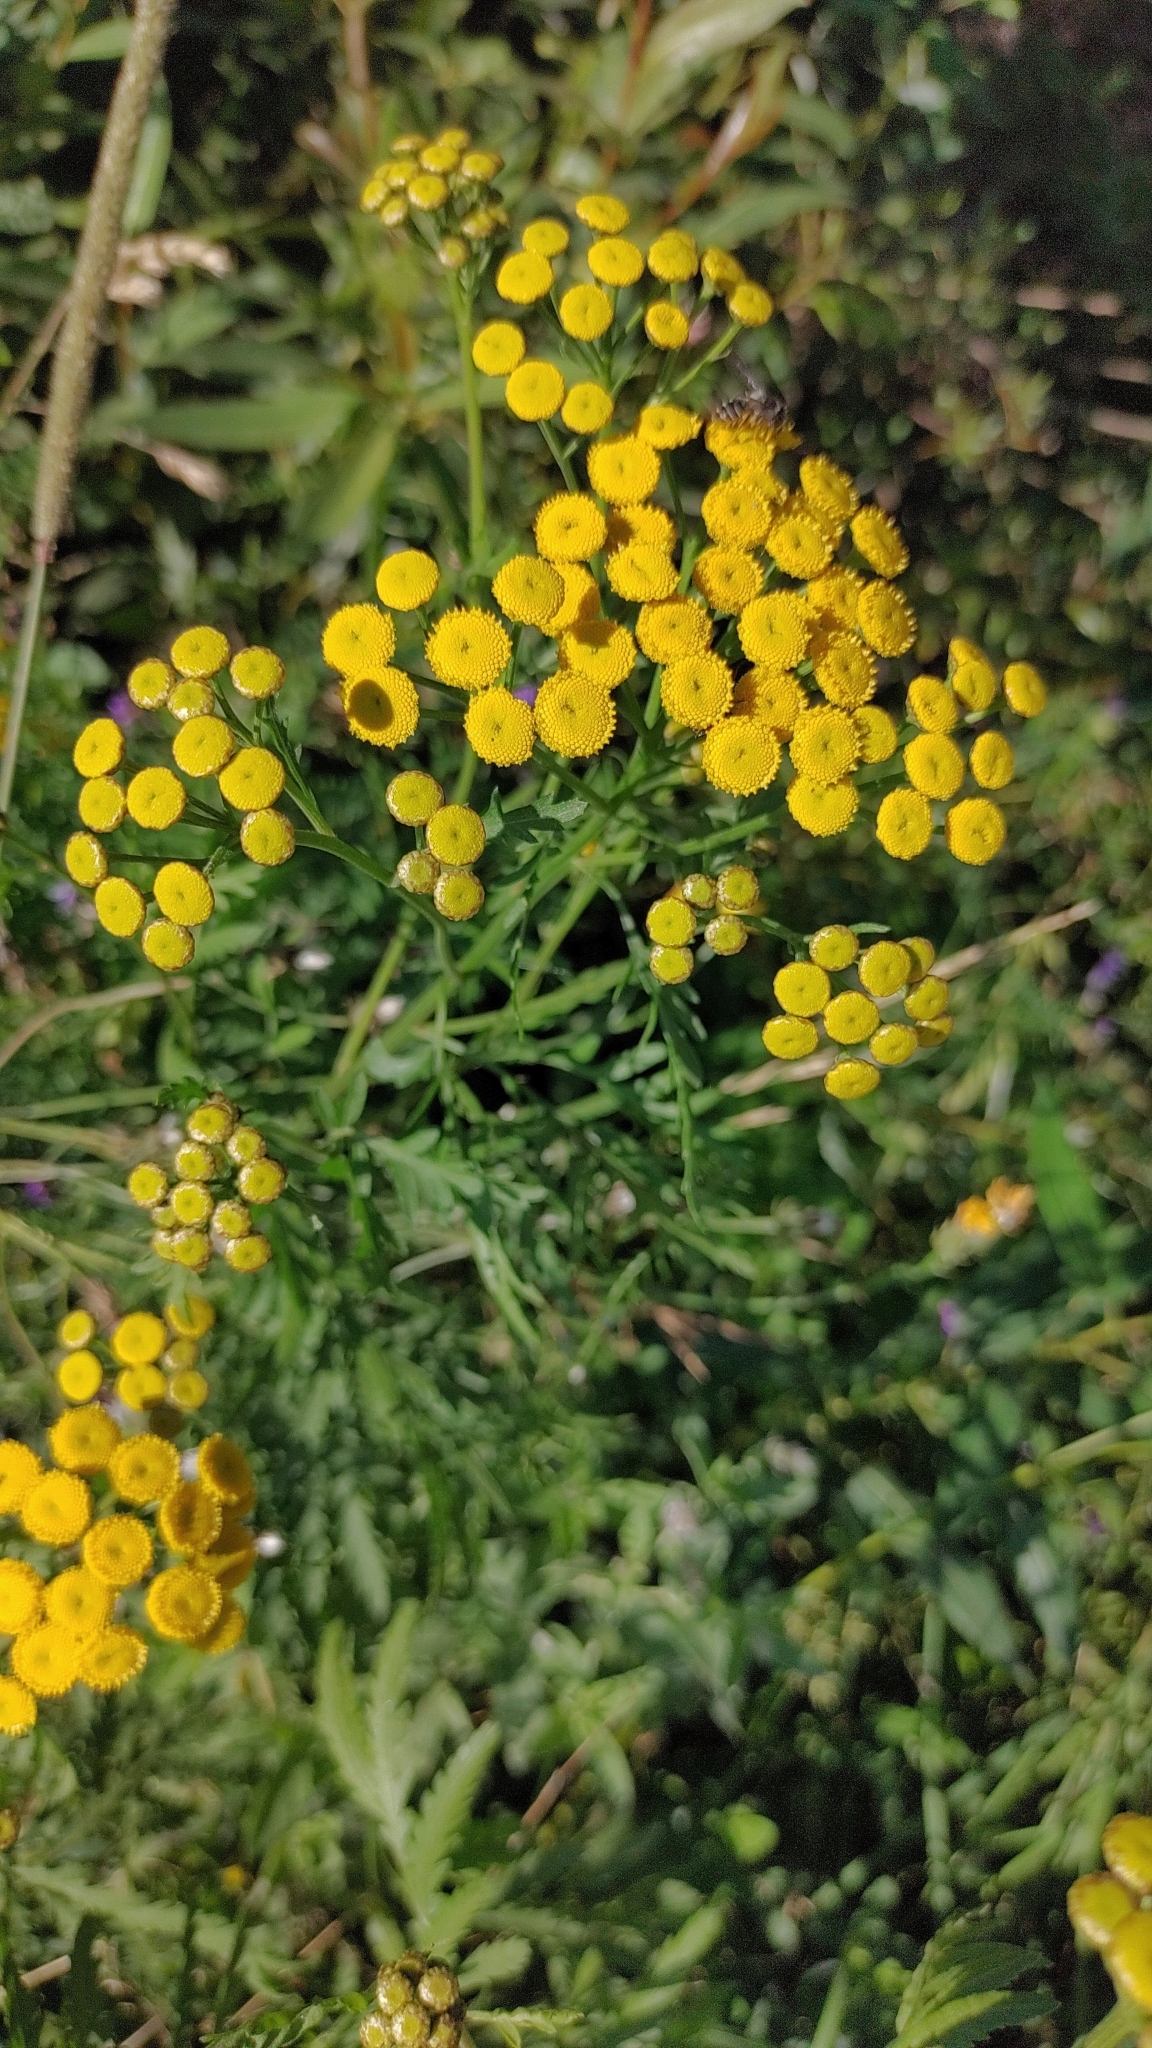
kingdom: Plantae
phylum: Tracheophyta
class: Magnoliopsida
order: Asterales
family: Asteraceae
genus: Tanacetum
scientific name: Tanacetum vulgare
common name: Common tansy
